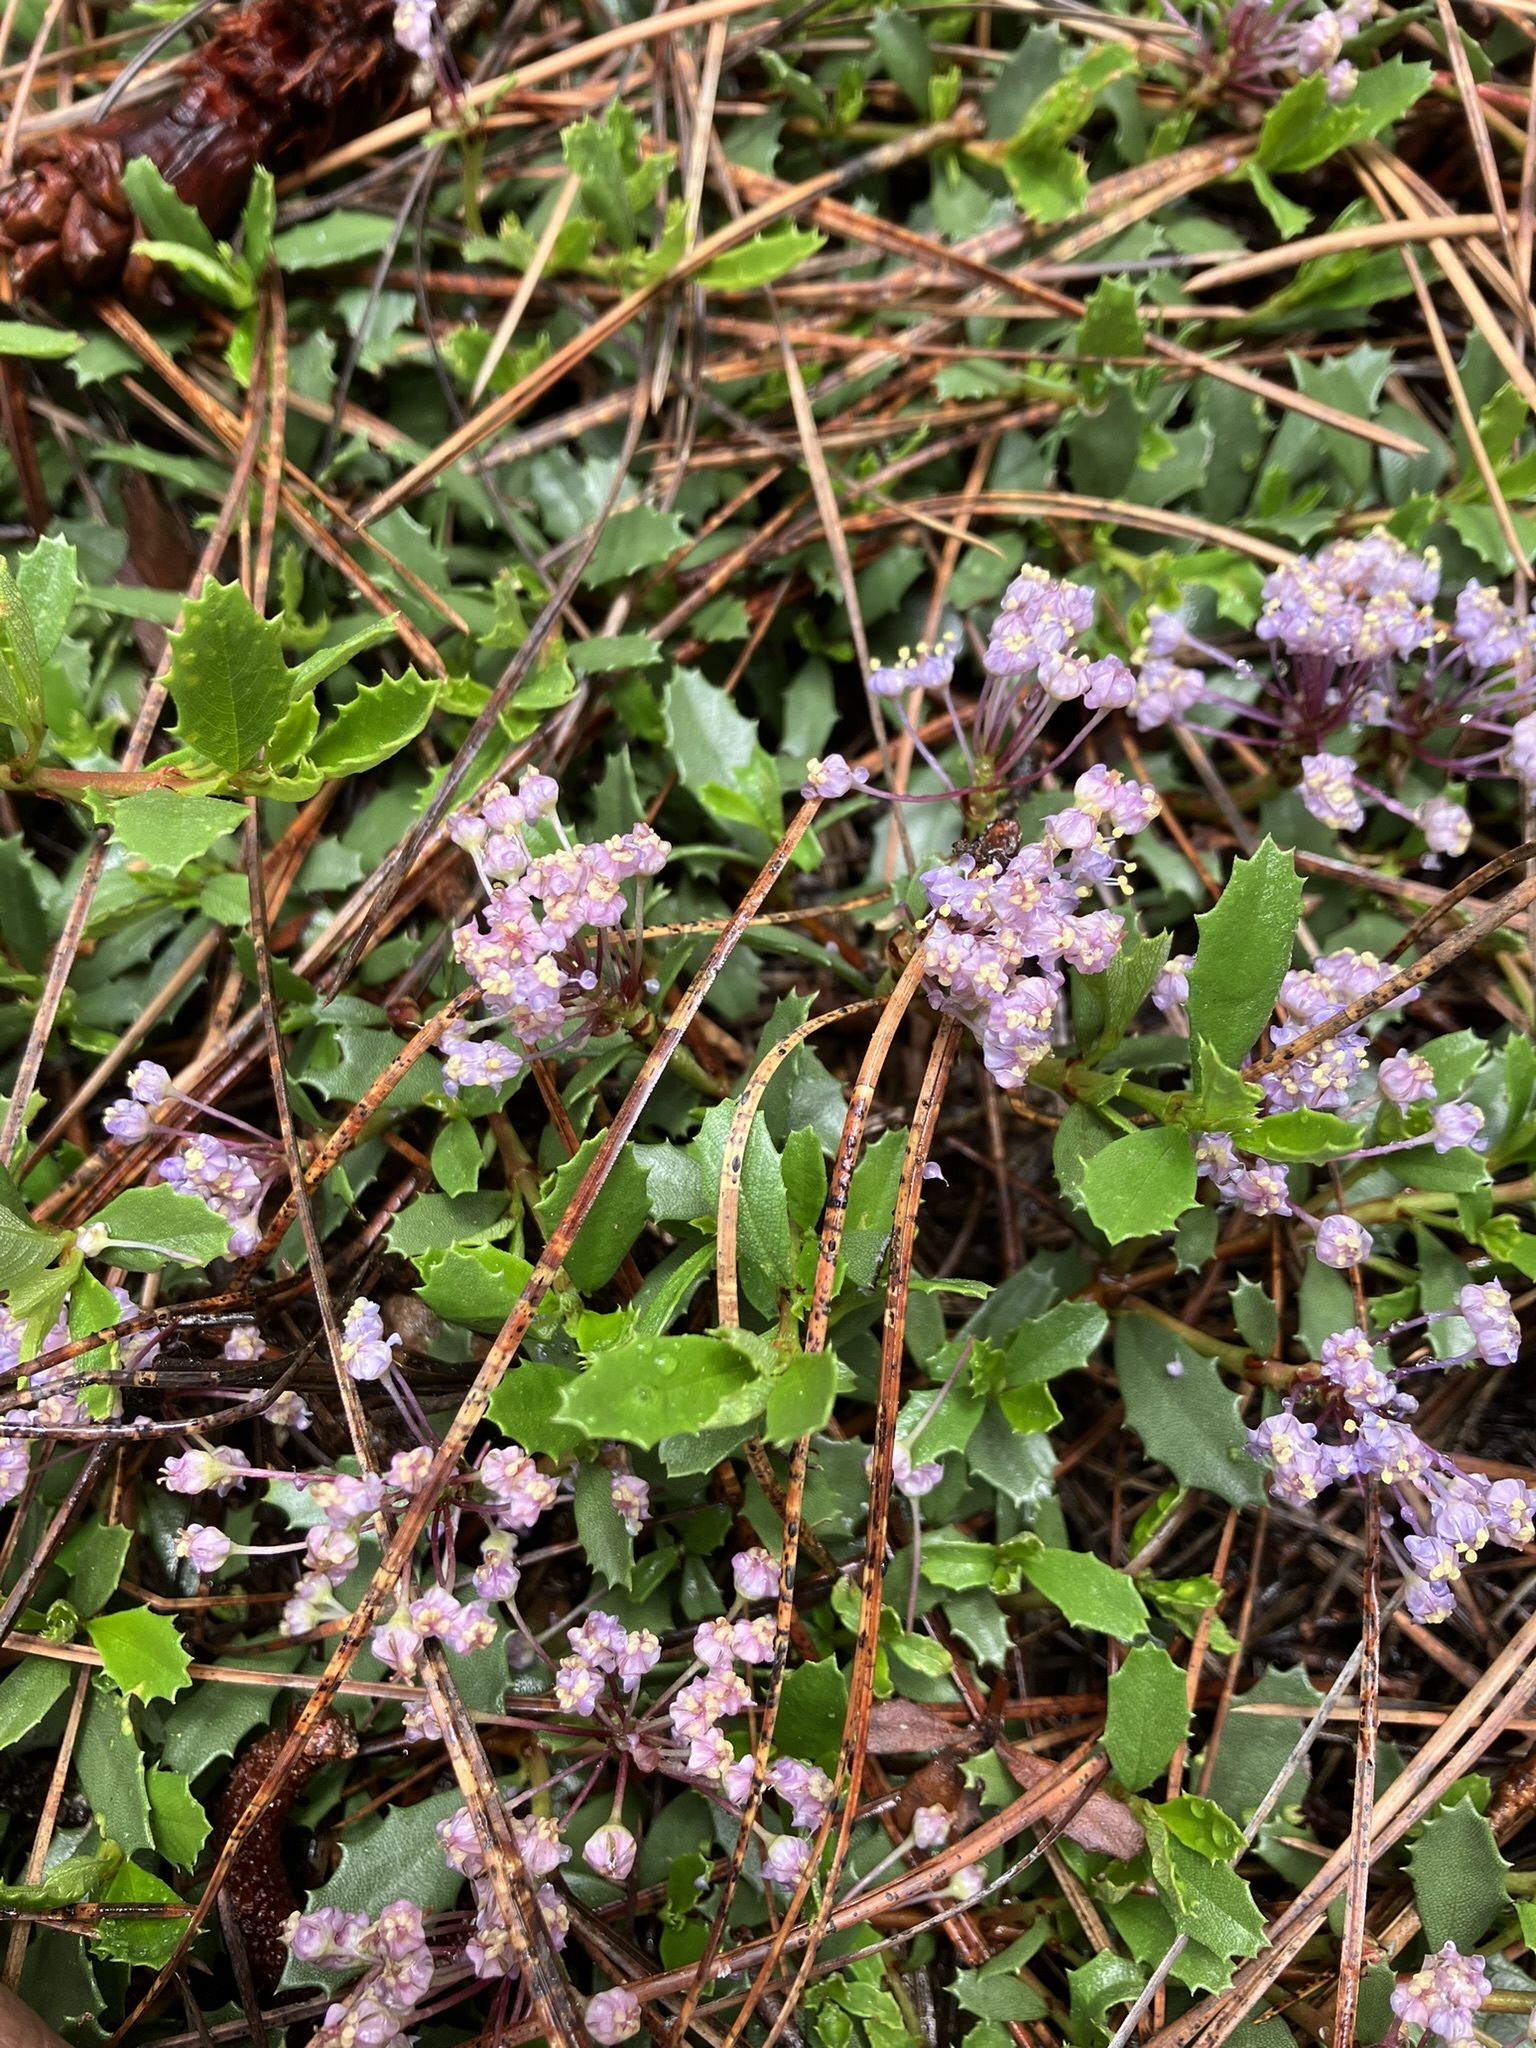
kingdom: Plantae
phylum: Tracheophyta
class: Magnoliopsida
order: Rosales
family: Rhamnaceae
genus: Ceanothus
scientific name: Ceanothus prostratus
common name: Mahala-mat
